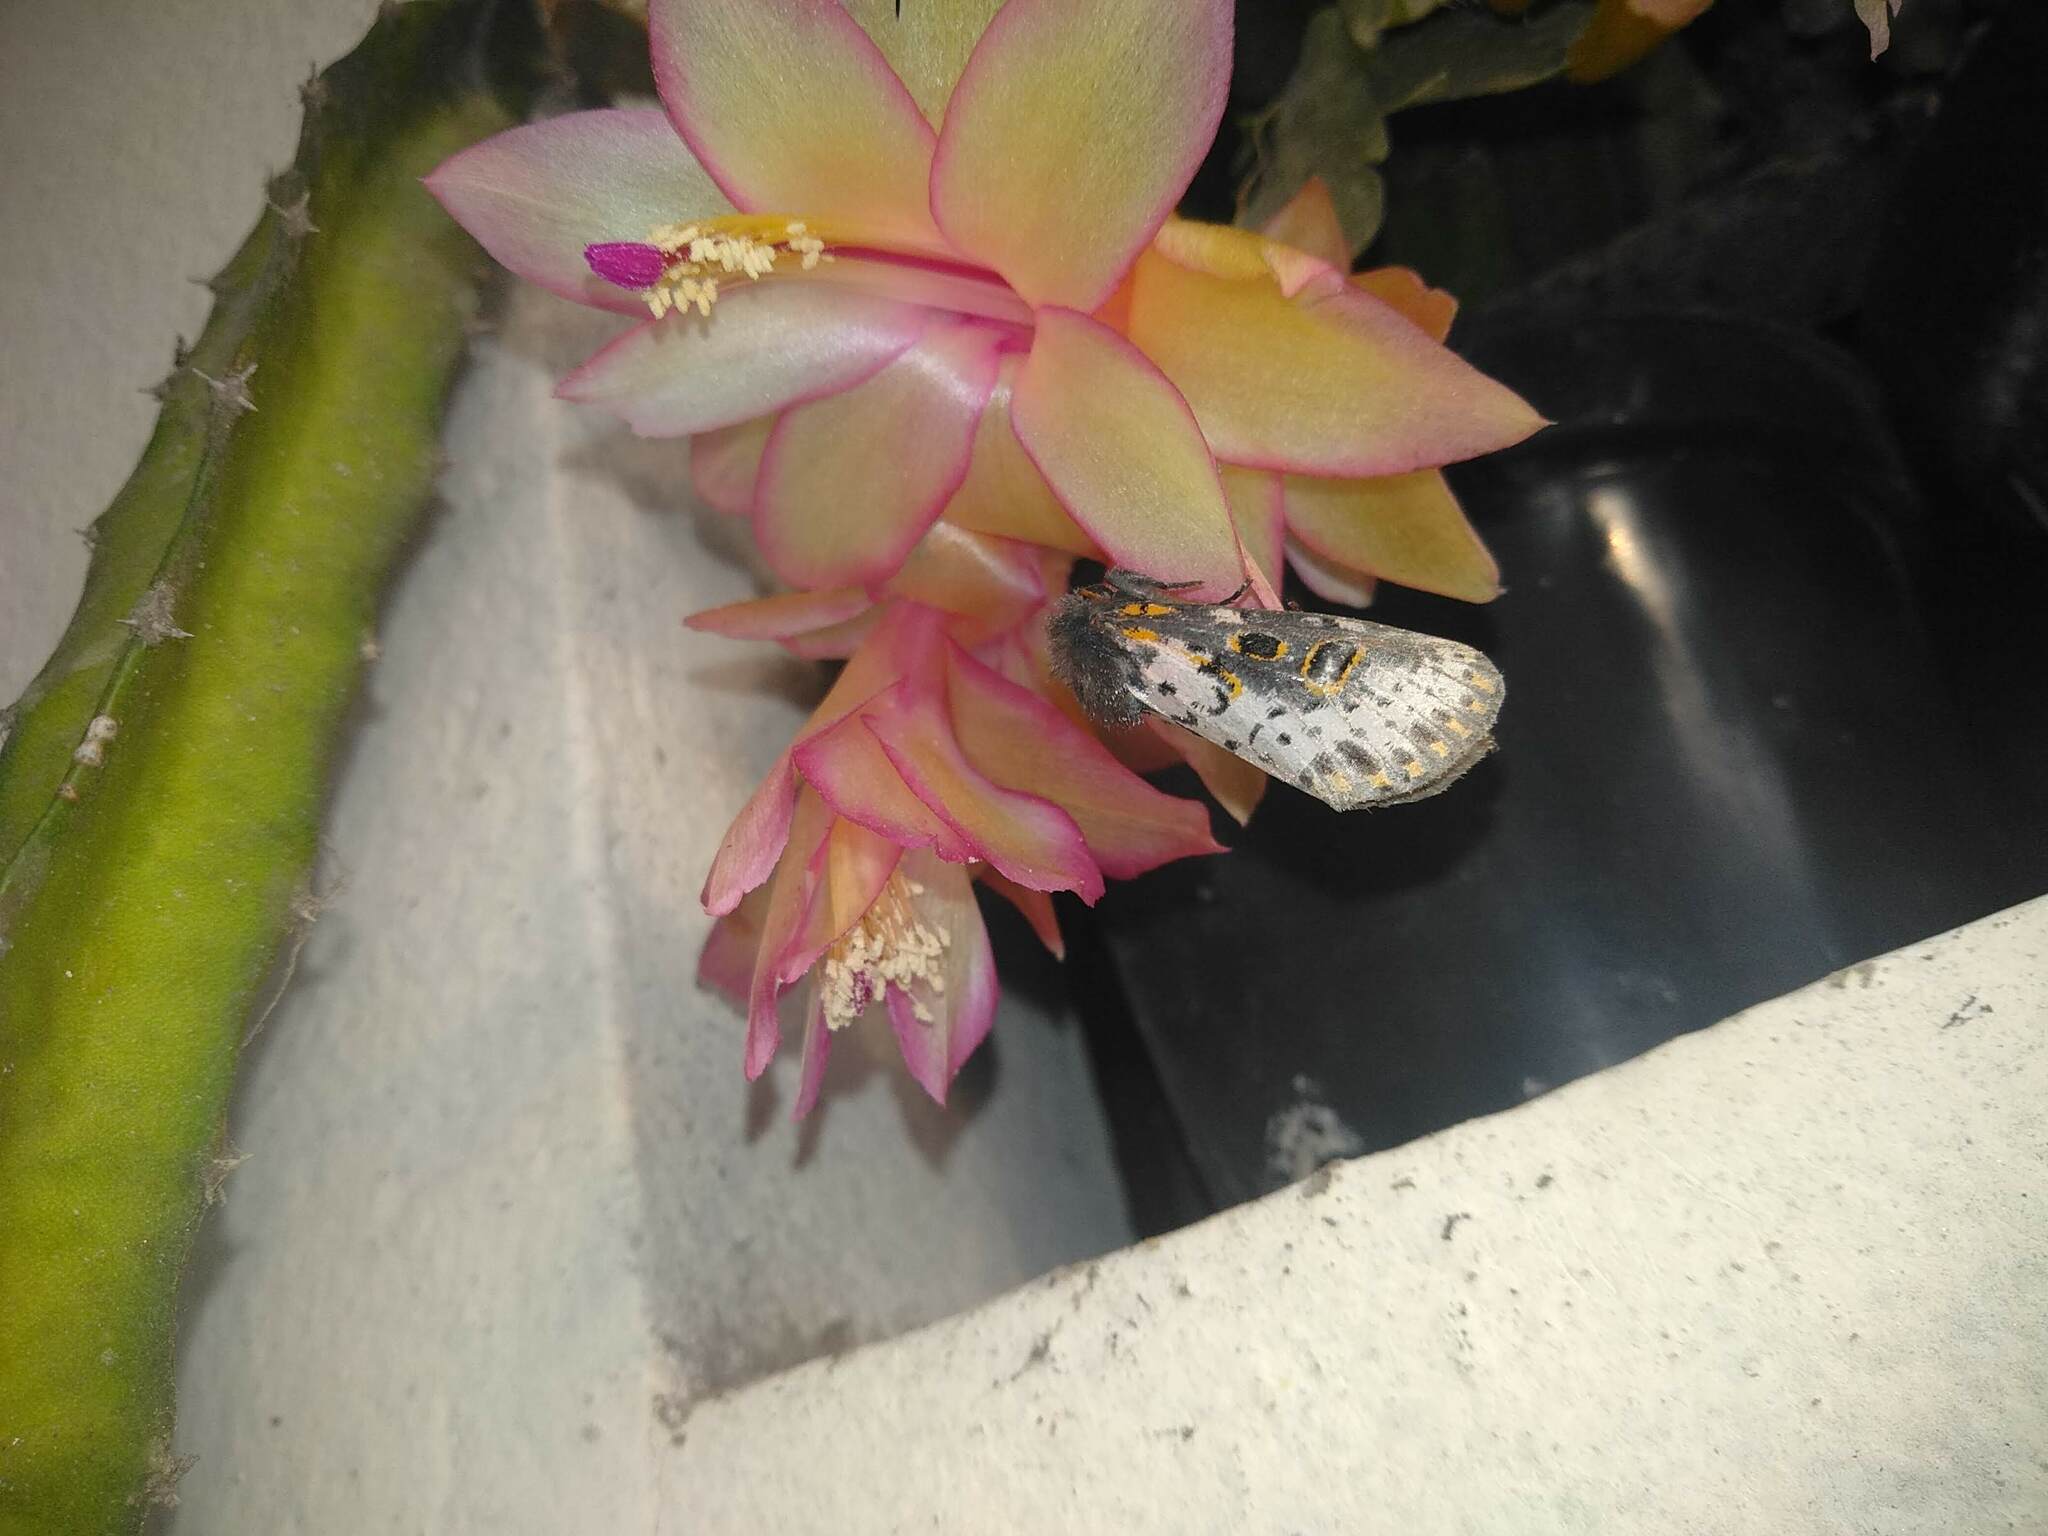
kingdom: Animalia
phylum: Arthropoda
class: Insecta
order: Lepidoptera
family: Noctuidae
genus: Xanthopastis
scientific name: Xanthopastis timais
